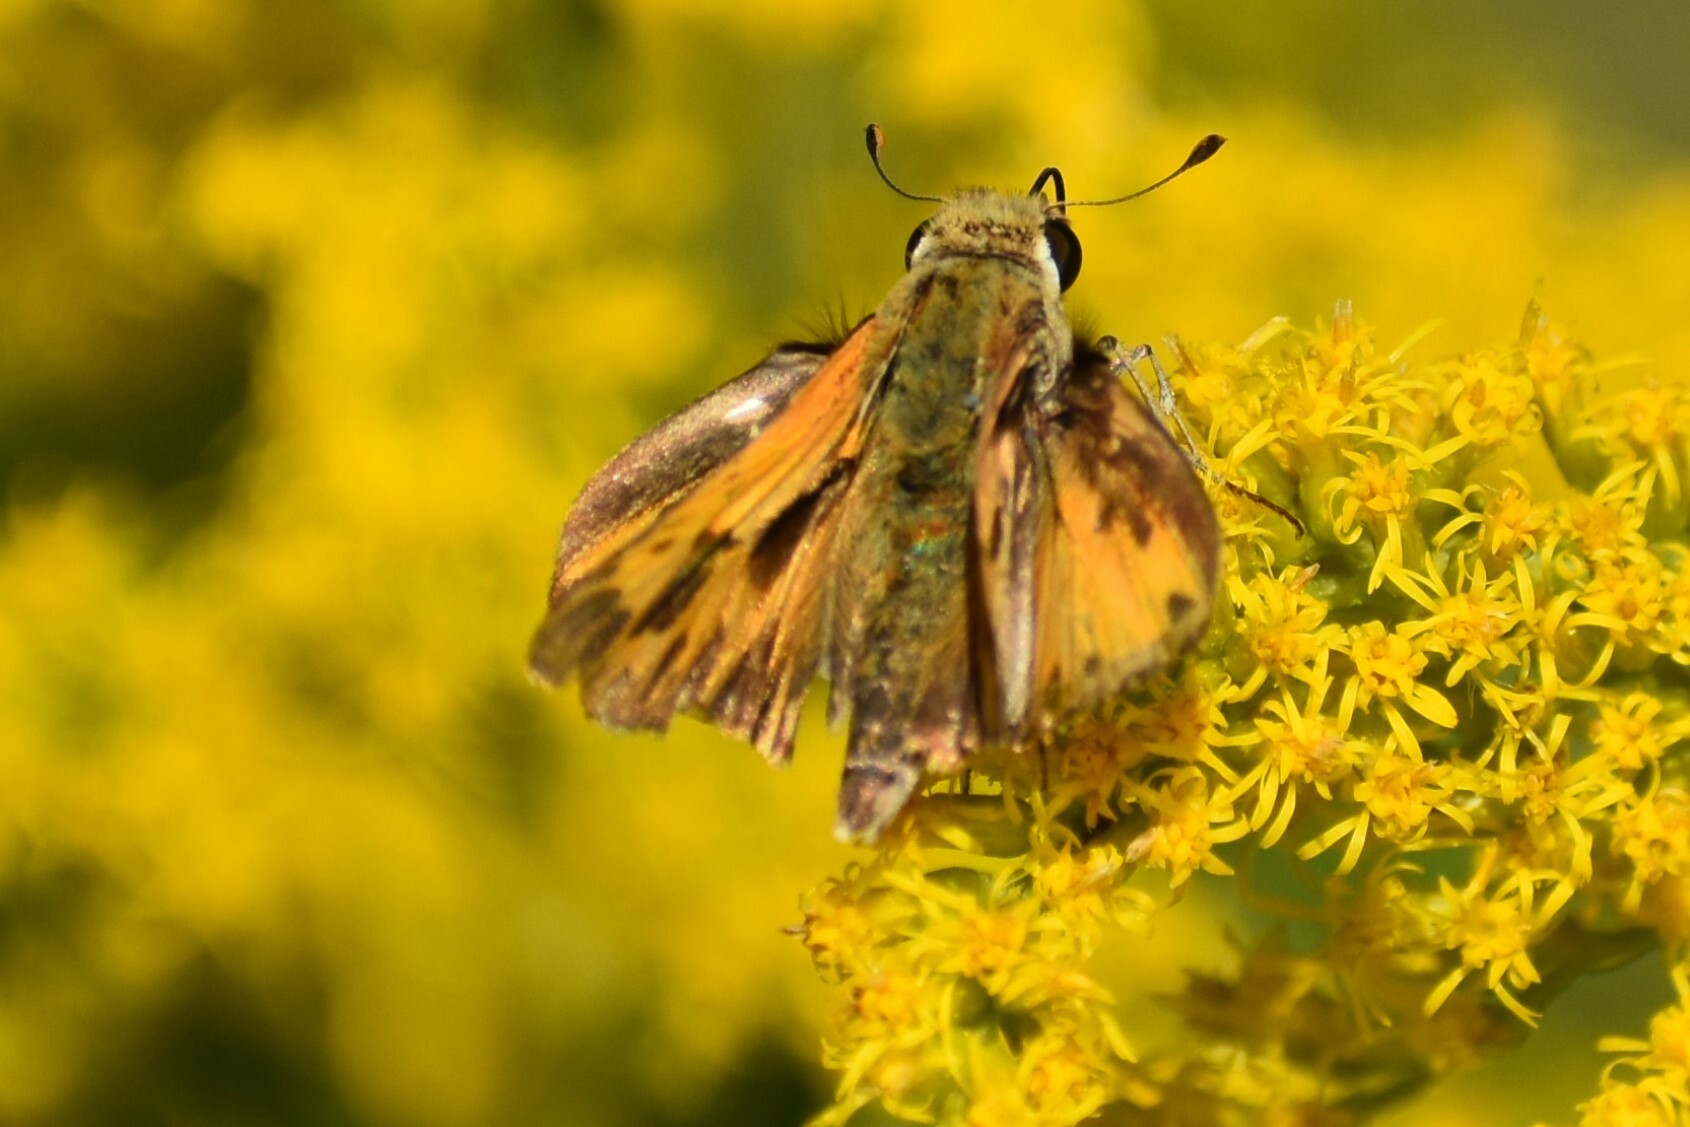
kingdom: Animalia
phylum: Arthropoda
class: Insecta
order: Lepidoptera
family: Hesperiidae
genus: Hylephila
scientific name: Hylephila phyleus
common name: Fiery skipper
